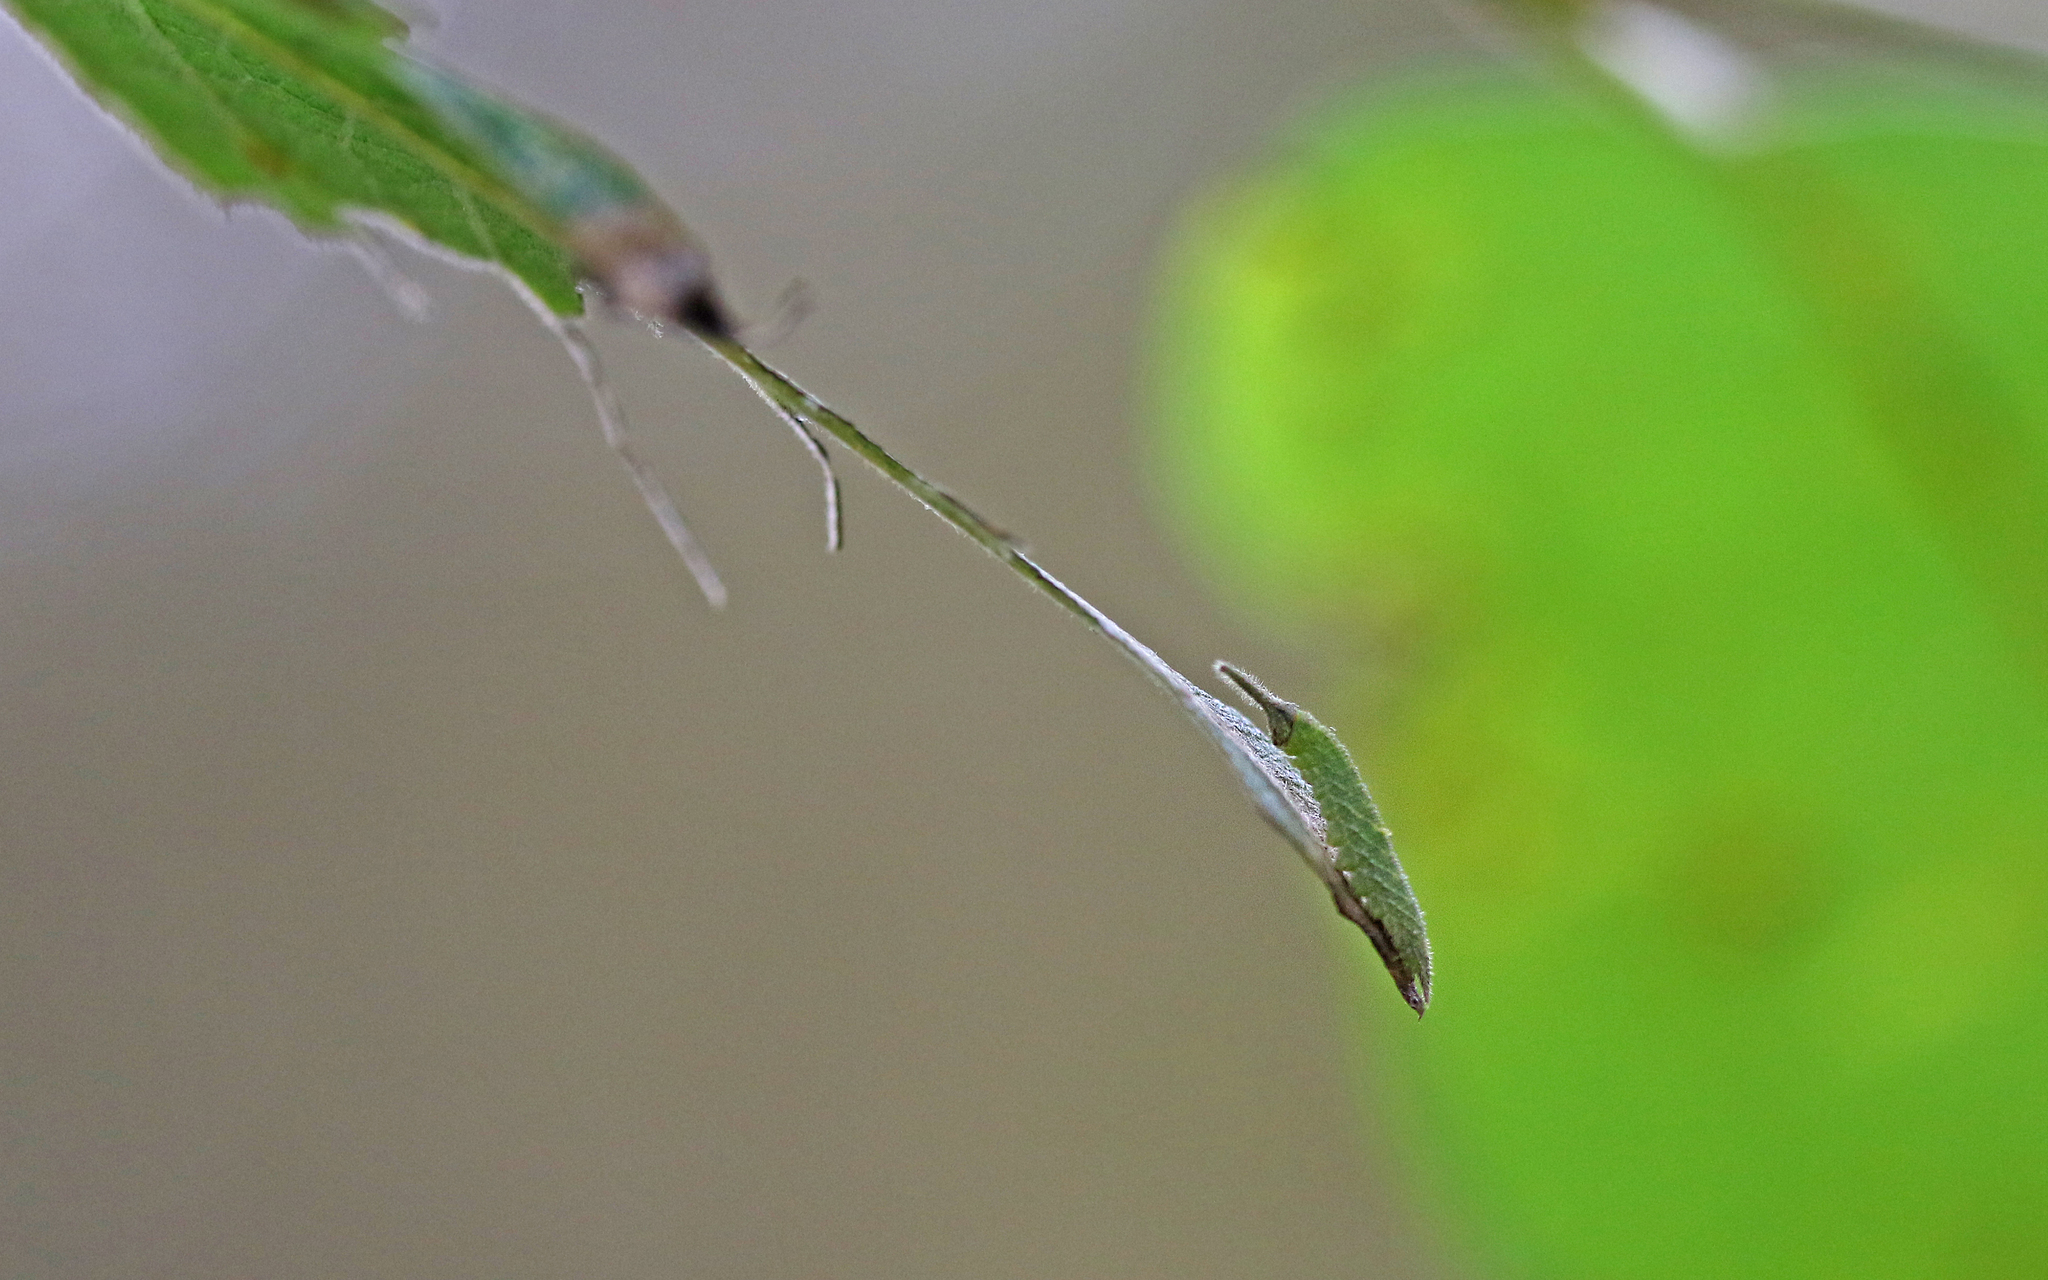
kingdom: Animalia
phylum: Arthropoda
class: Insecta
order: Lepidoptera
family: Nymphalidae
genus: Apatura
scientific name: Apatura iris
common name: Purple emperor
